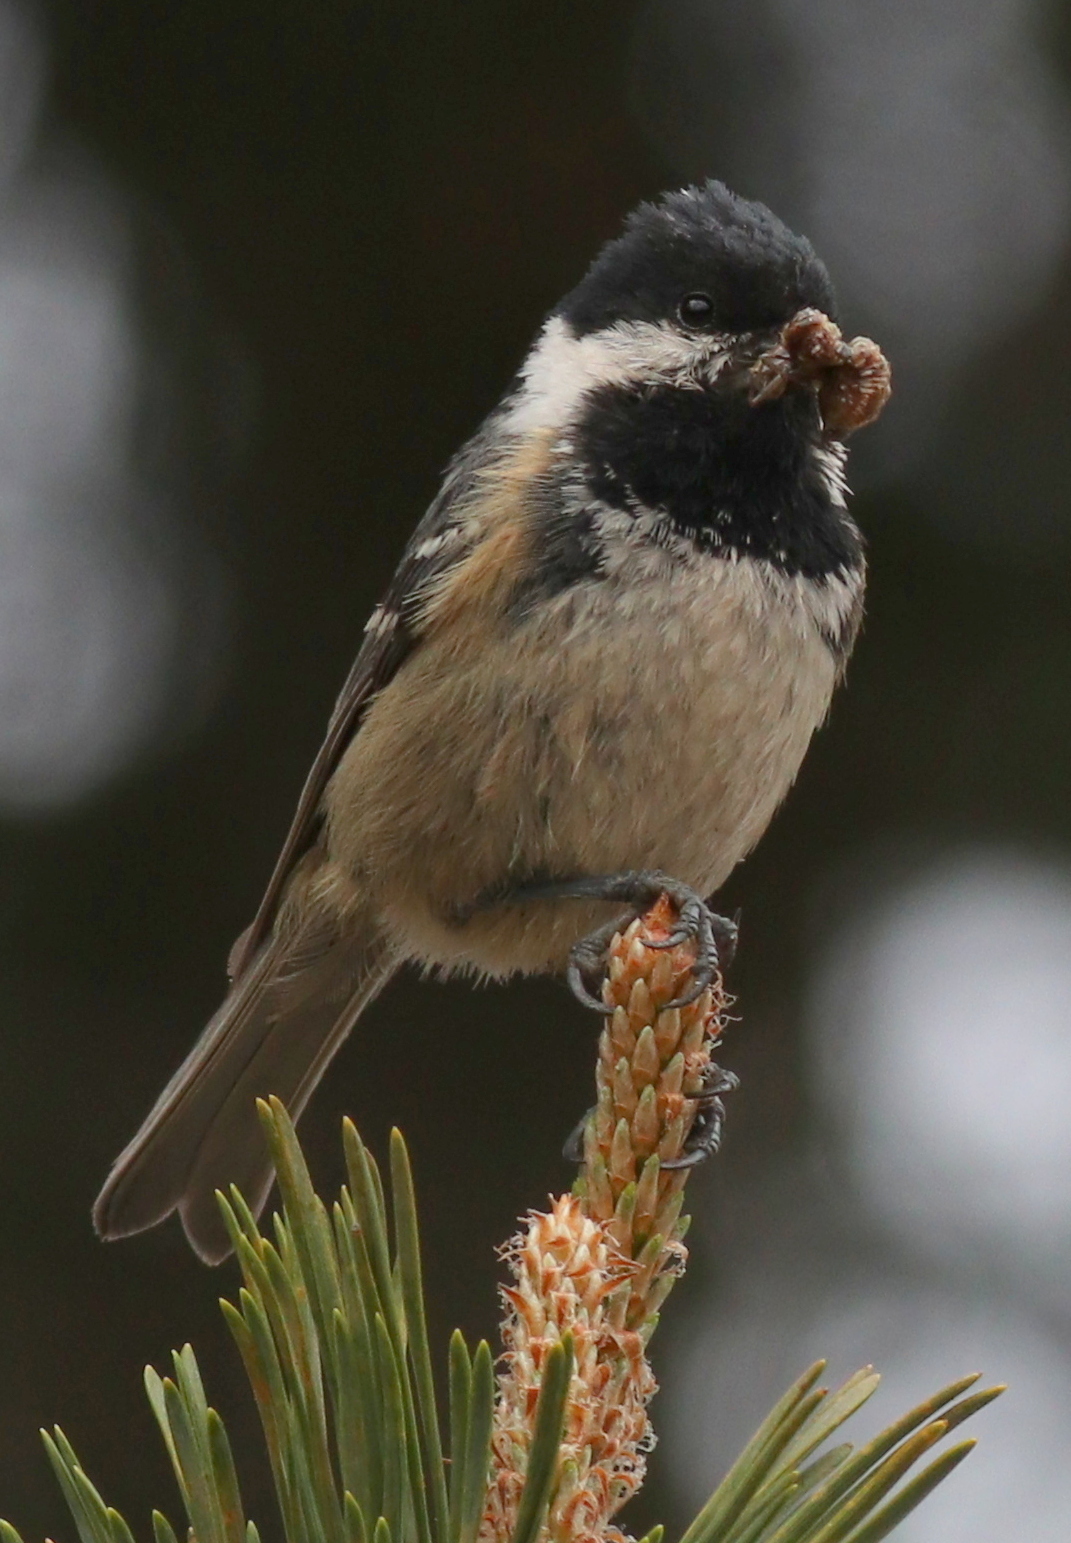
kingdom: Animalia
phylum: Chordata
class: Aves
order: Passeriformes
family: Paridae
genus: Periparus
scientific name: Periparus ater
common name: Coal tit
